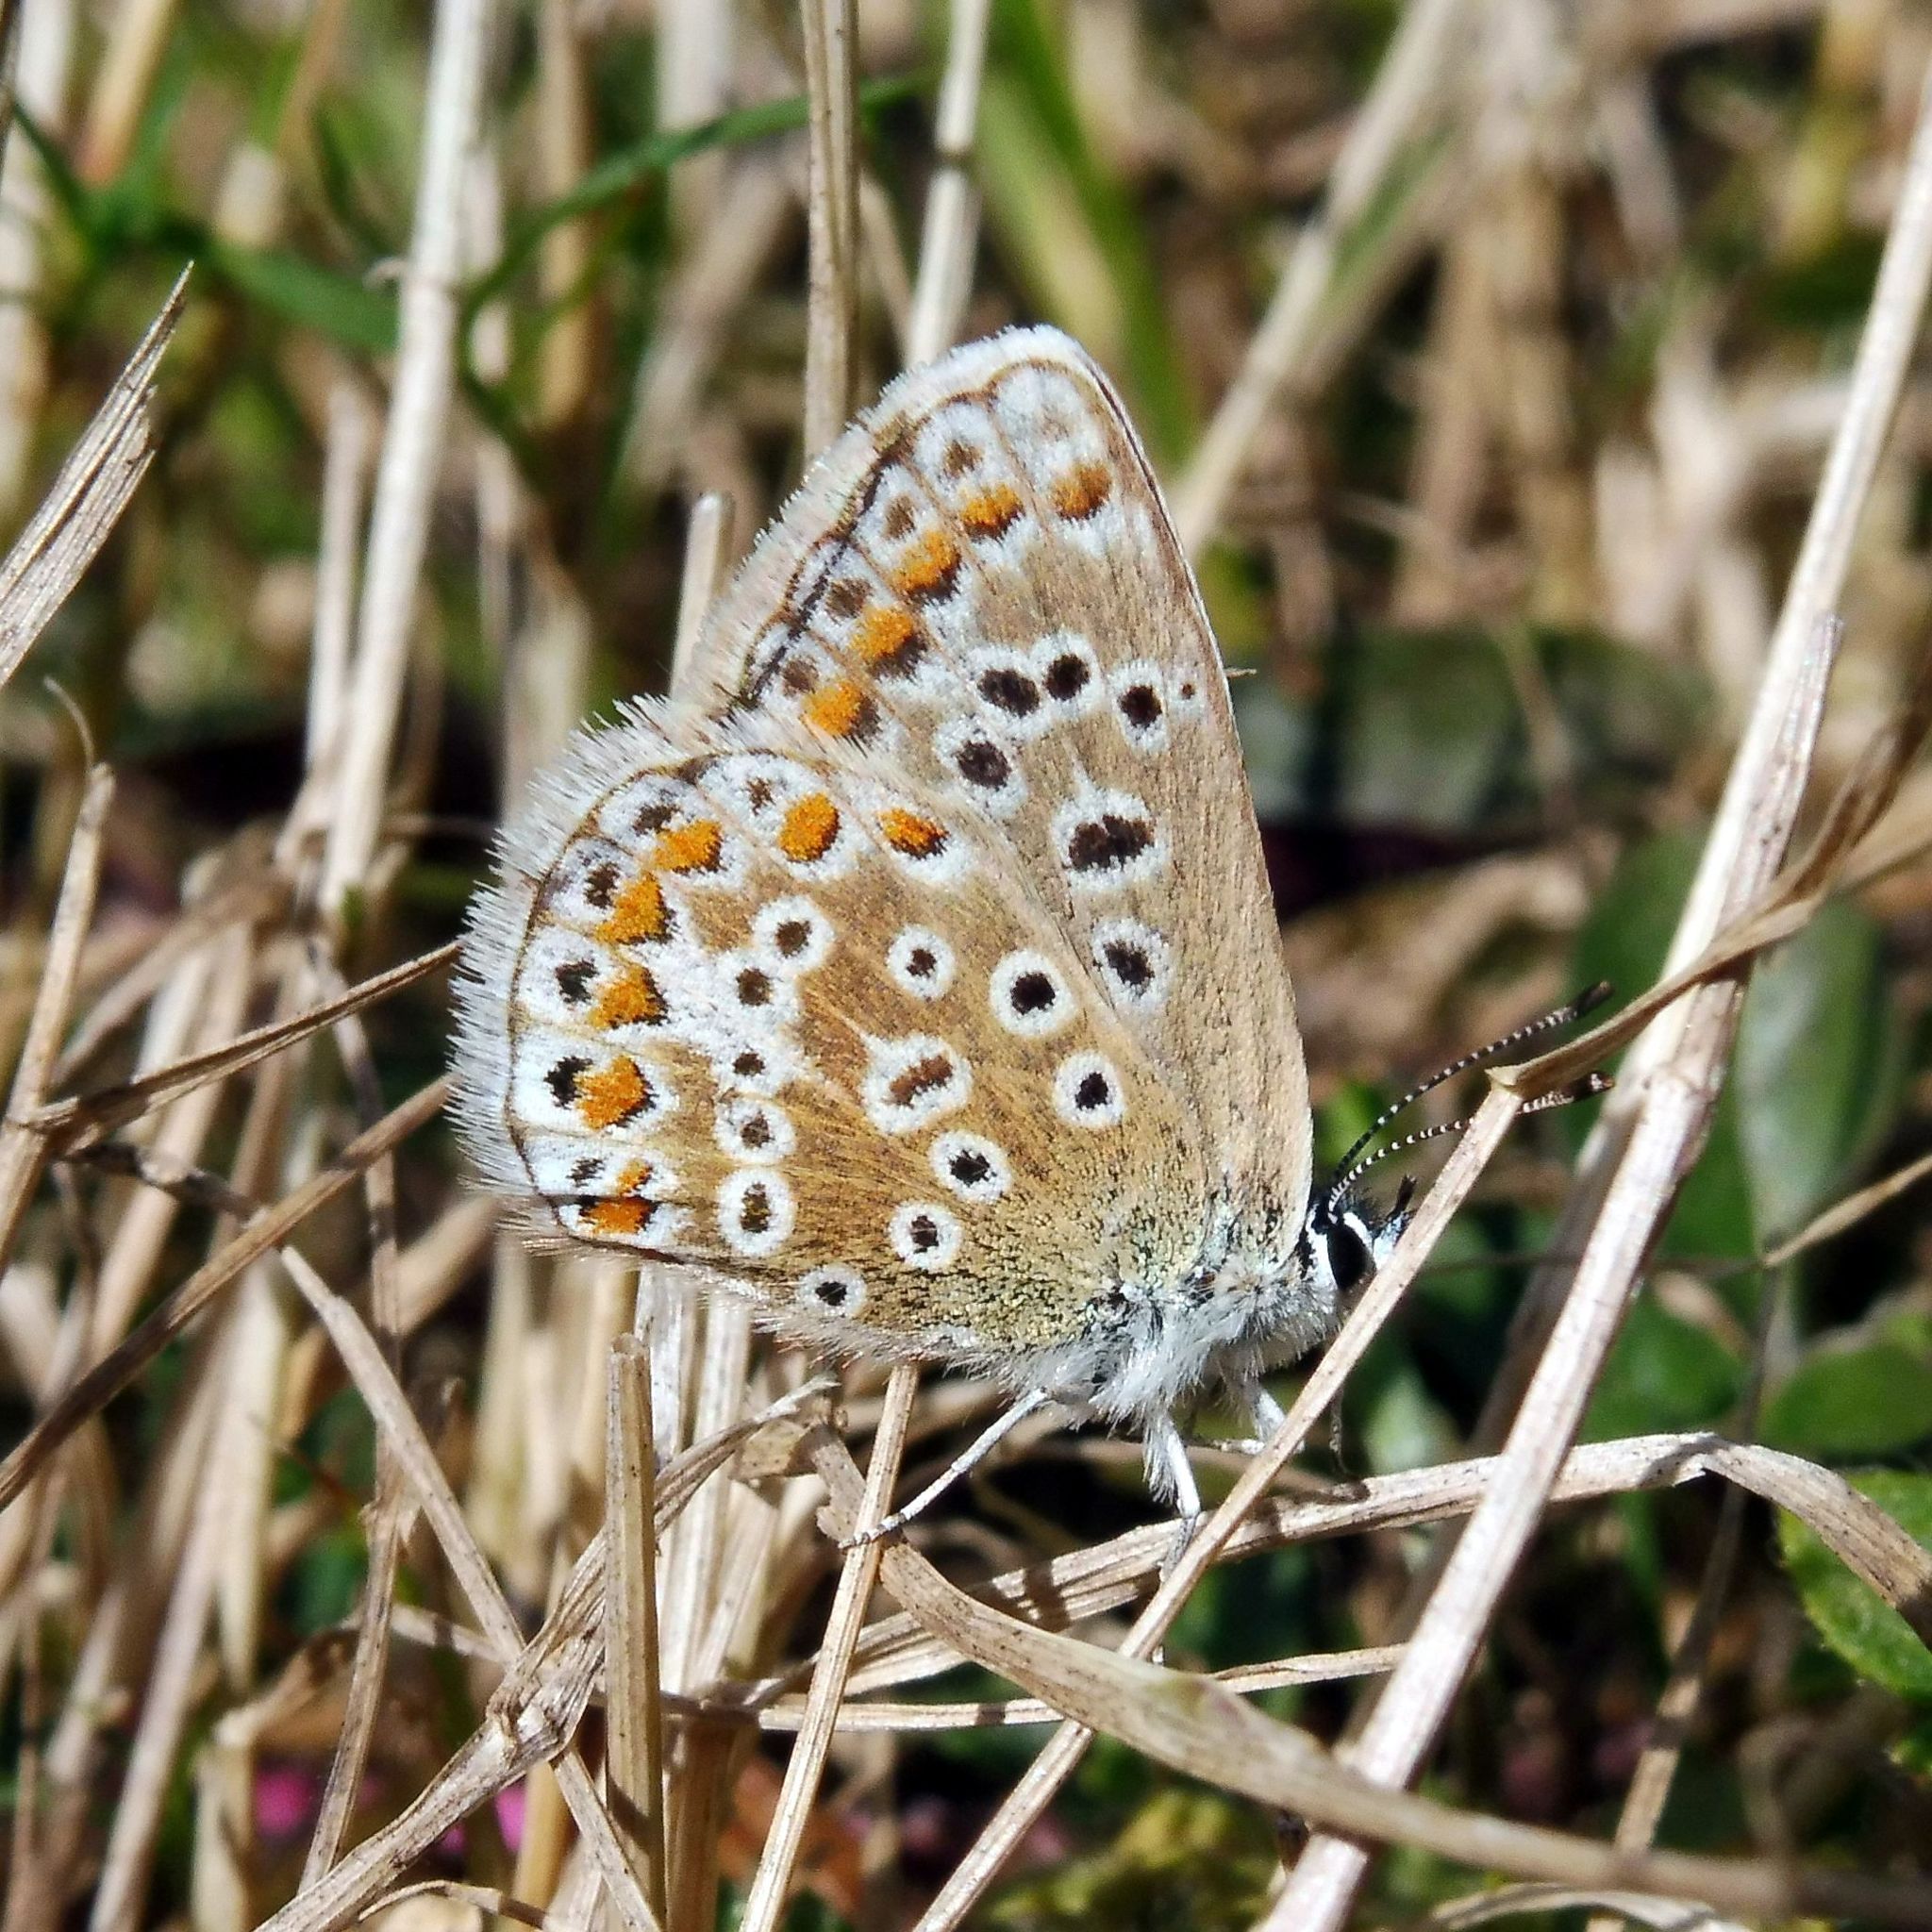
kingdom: Animalia
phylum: Arthropoda
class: Insecta
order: Lepidoptera
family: Lycaenidae
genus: Polyommatus
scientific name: Polyommatus icarus
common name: Common blue
